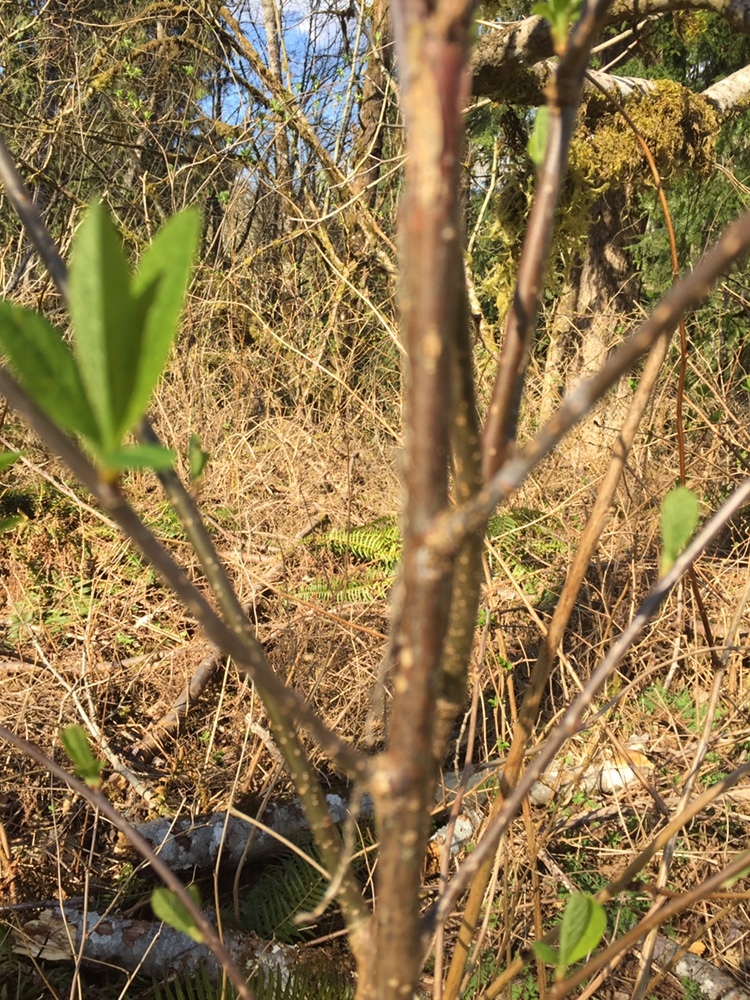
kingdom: Plantae
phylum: Tracheophyta
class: Magnoliopsida
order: Rosales
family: Rosaceae
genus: Oemleria
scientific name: Oemleria cerasiformis
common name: Osoberry
